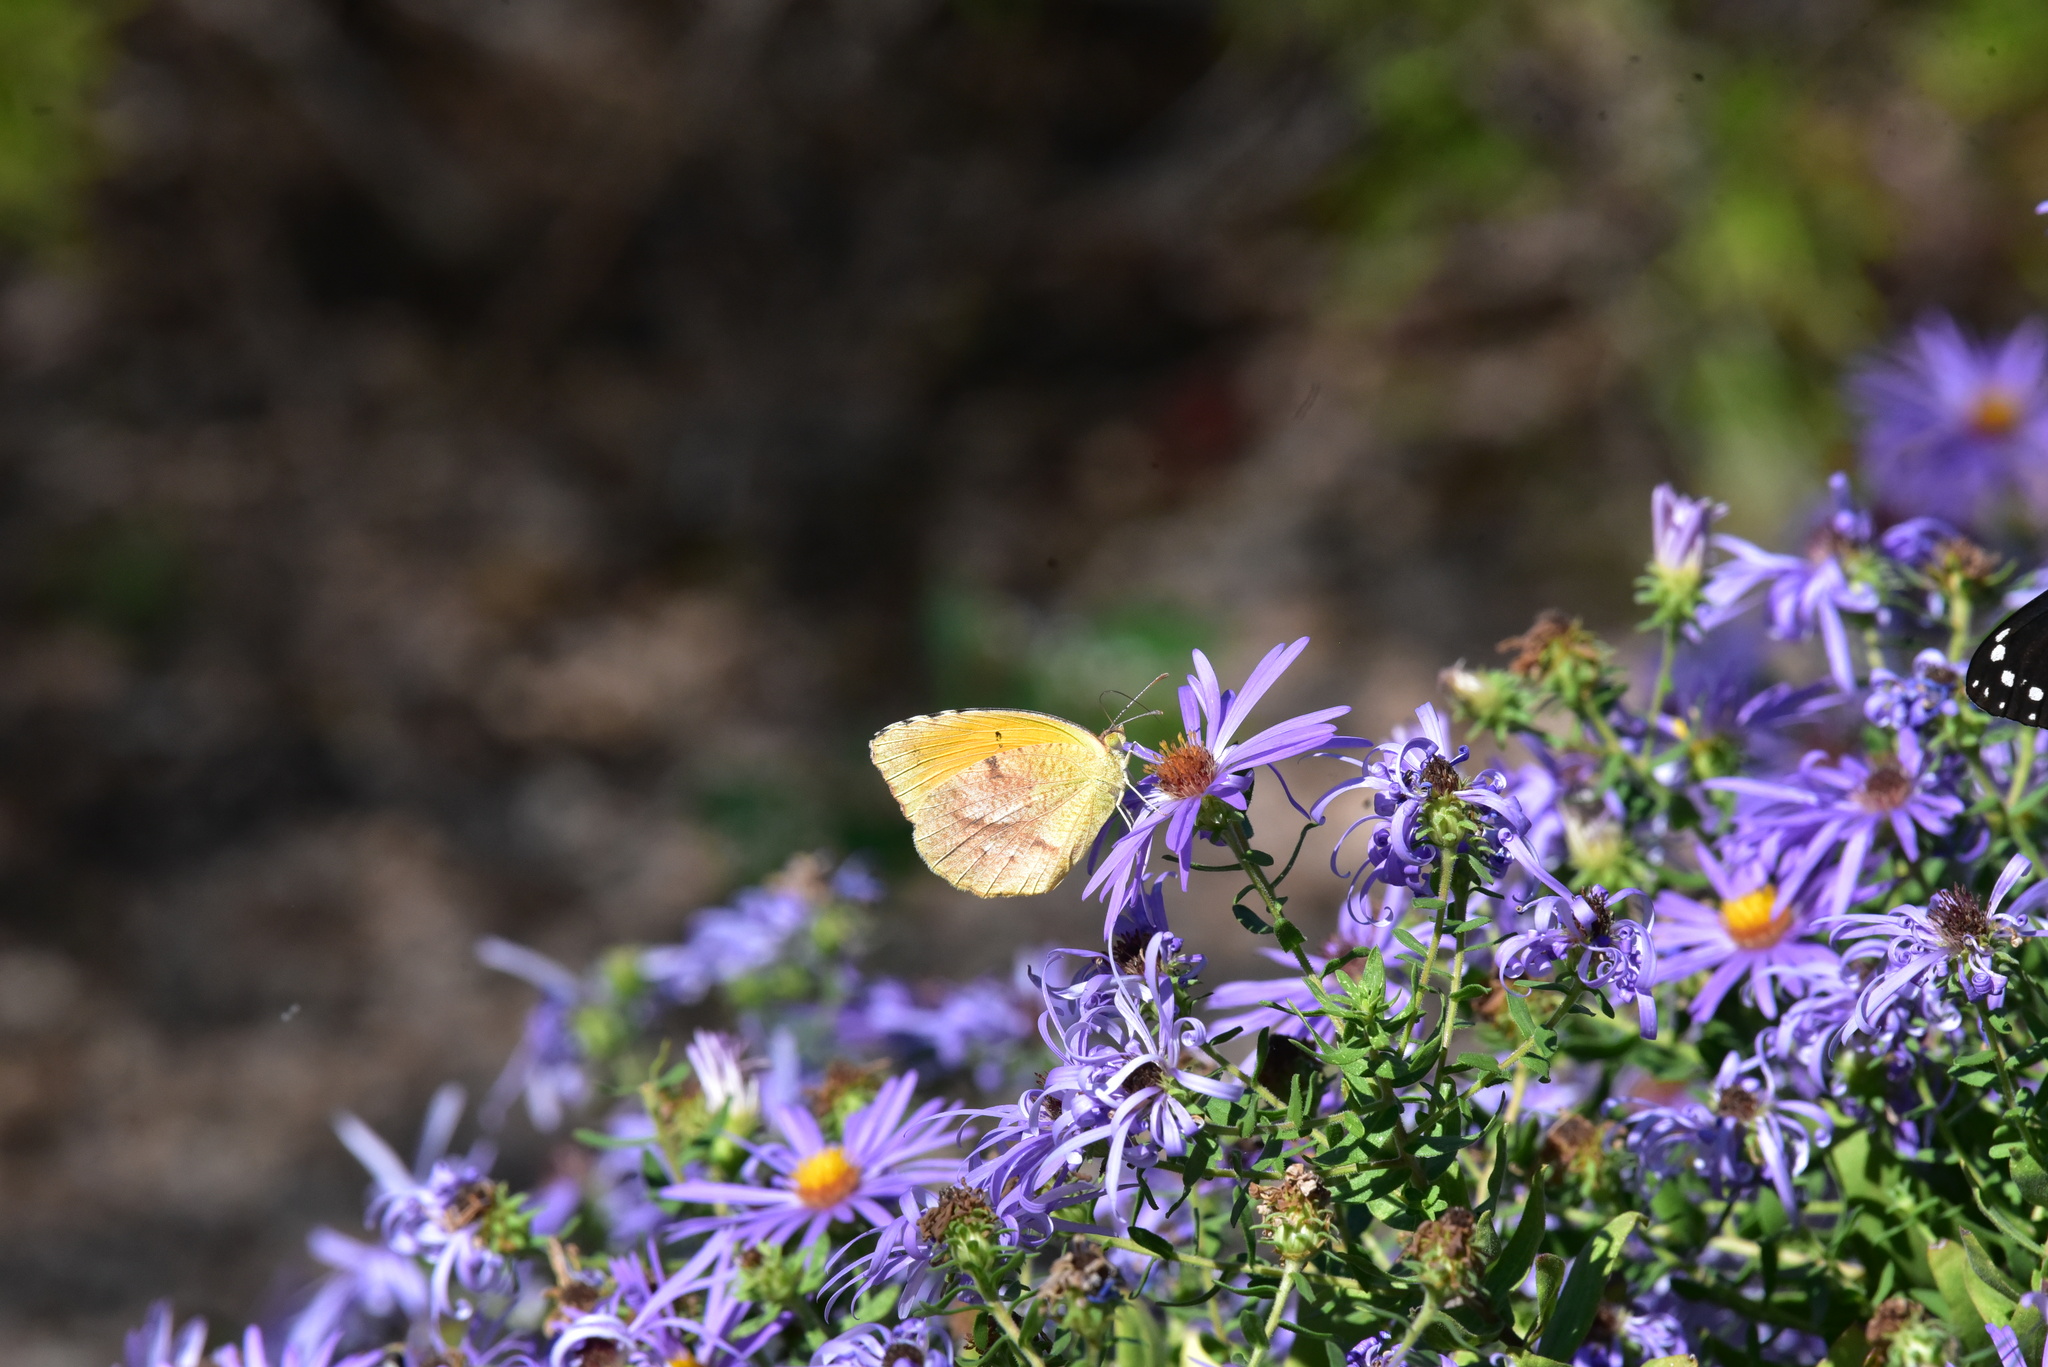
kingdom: Animalia
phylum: Arthropoda
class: Insecta
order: Lepidoptera
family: Pieridae
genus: Abaeis
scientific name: Abaeis nicippe
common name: Sleepy orange
